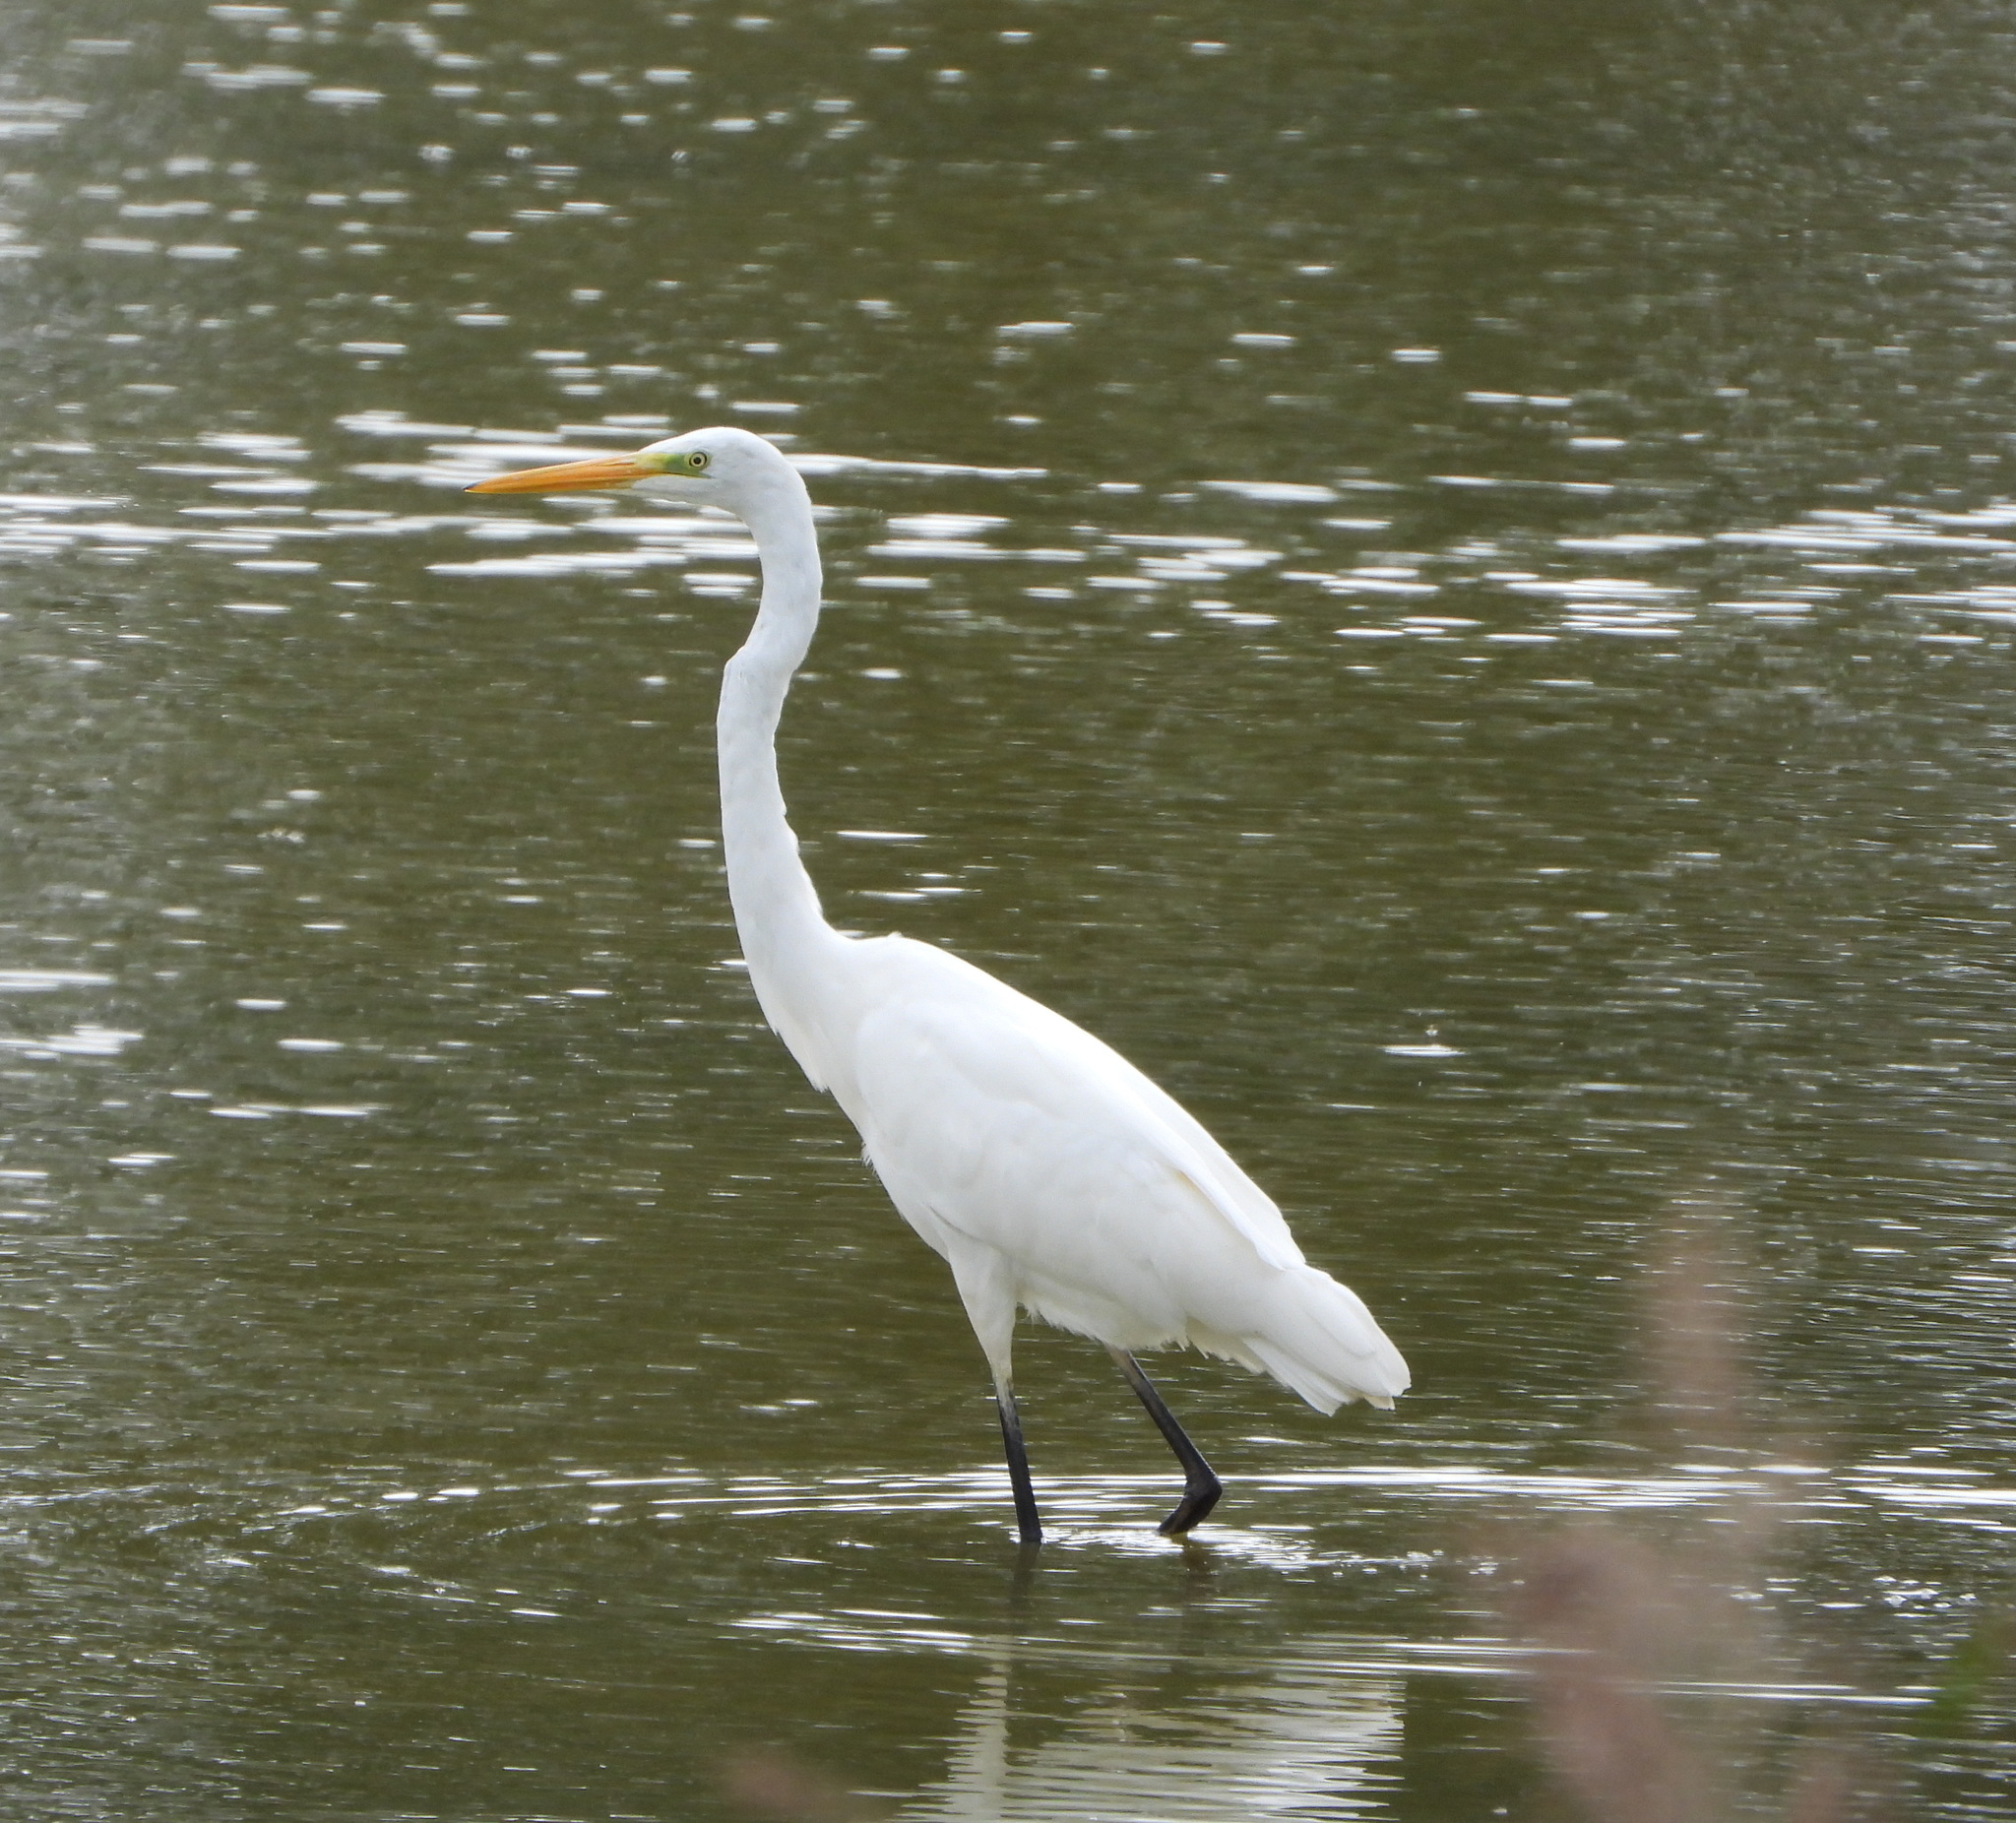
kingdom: Animalia
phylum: Chordata
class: Aves
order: Pelecaniformes
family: Ardeidae
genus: Ardea
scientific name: Ardea alba
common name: Great egret
